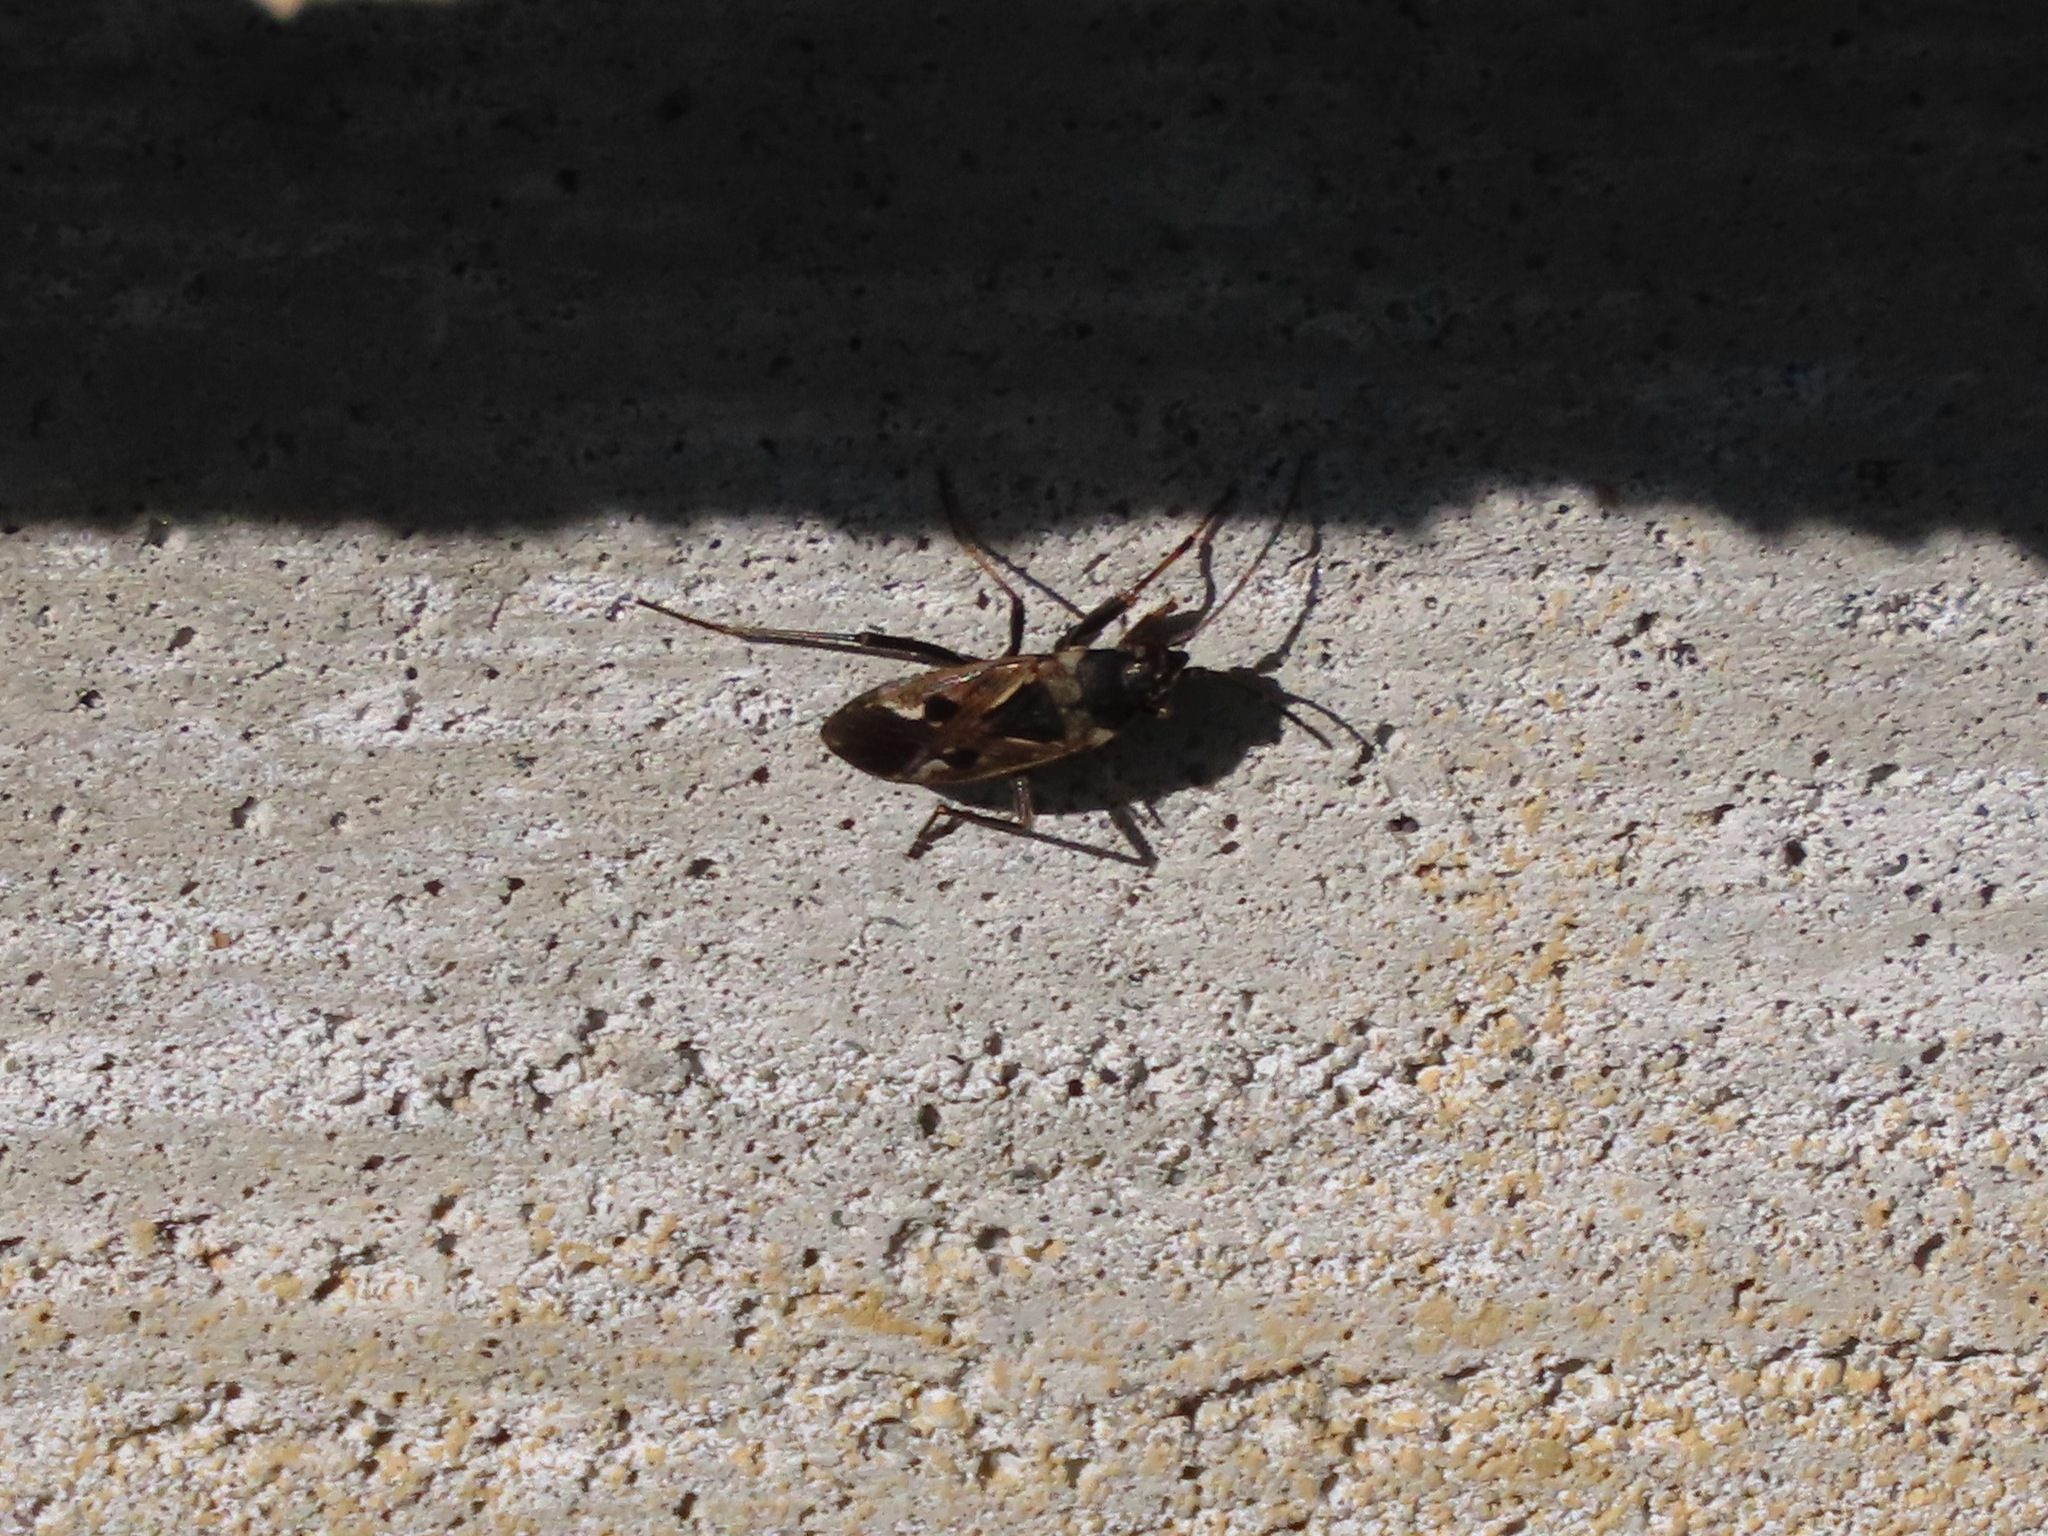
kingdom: Animalia
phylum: Arthropoda
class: Insecta
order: Hemiptera
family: Rhyparochromidae
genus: Rhyparochromus
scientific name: Rhyparochromus vulgaris
